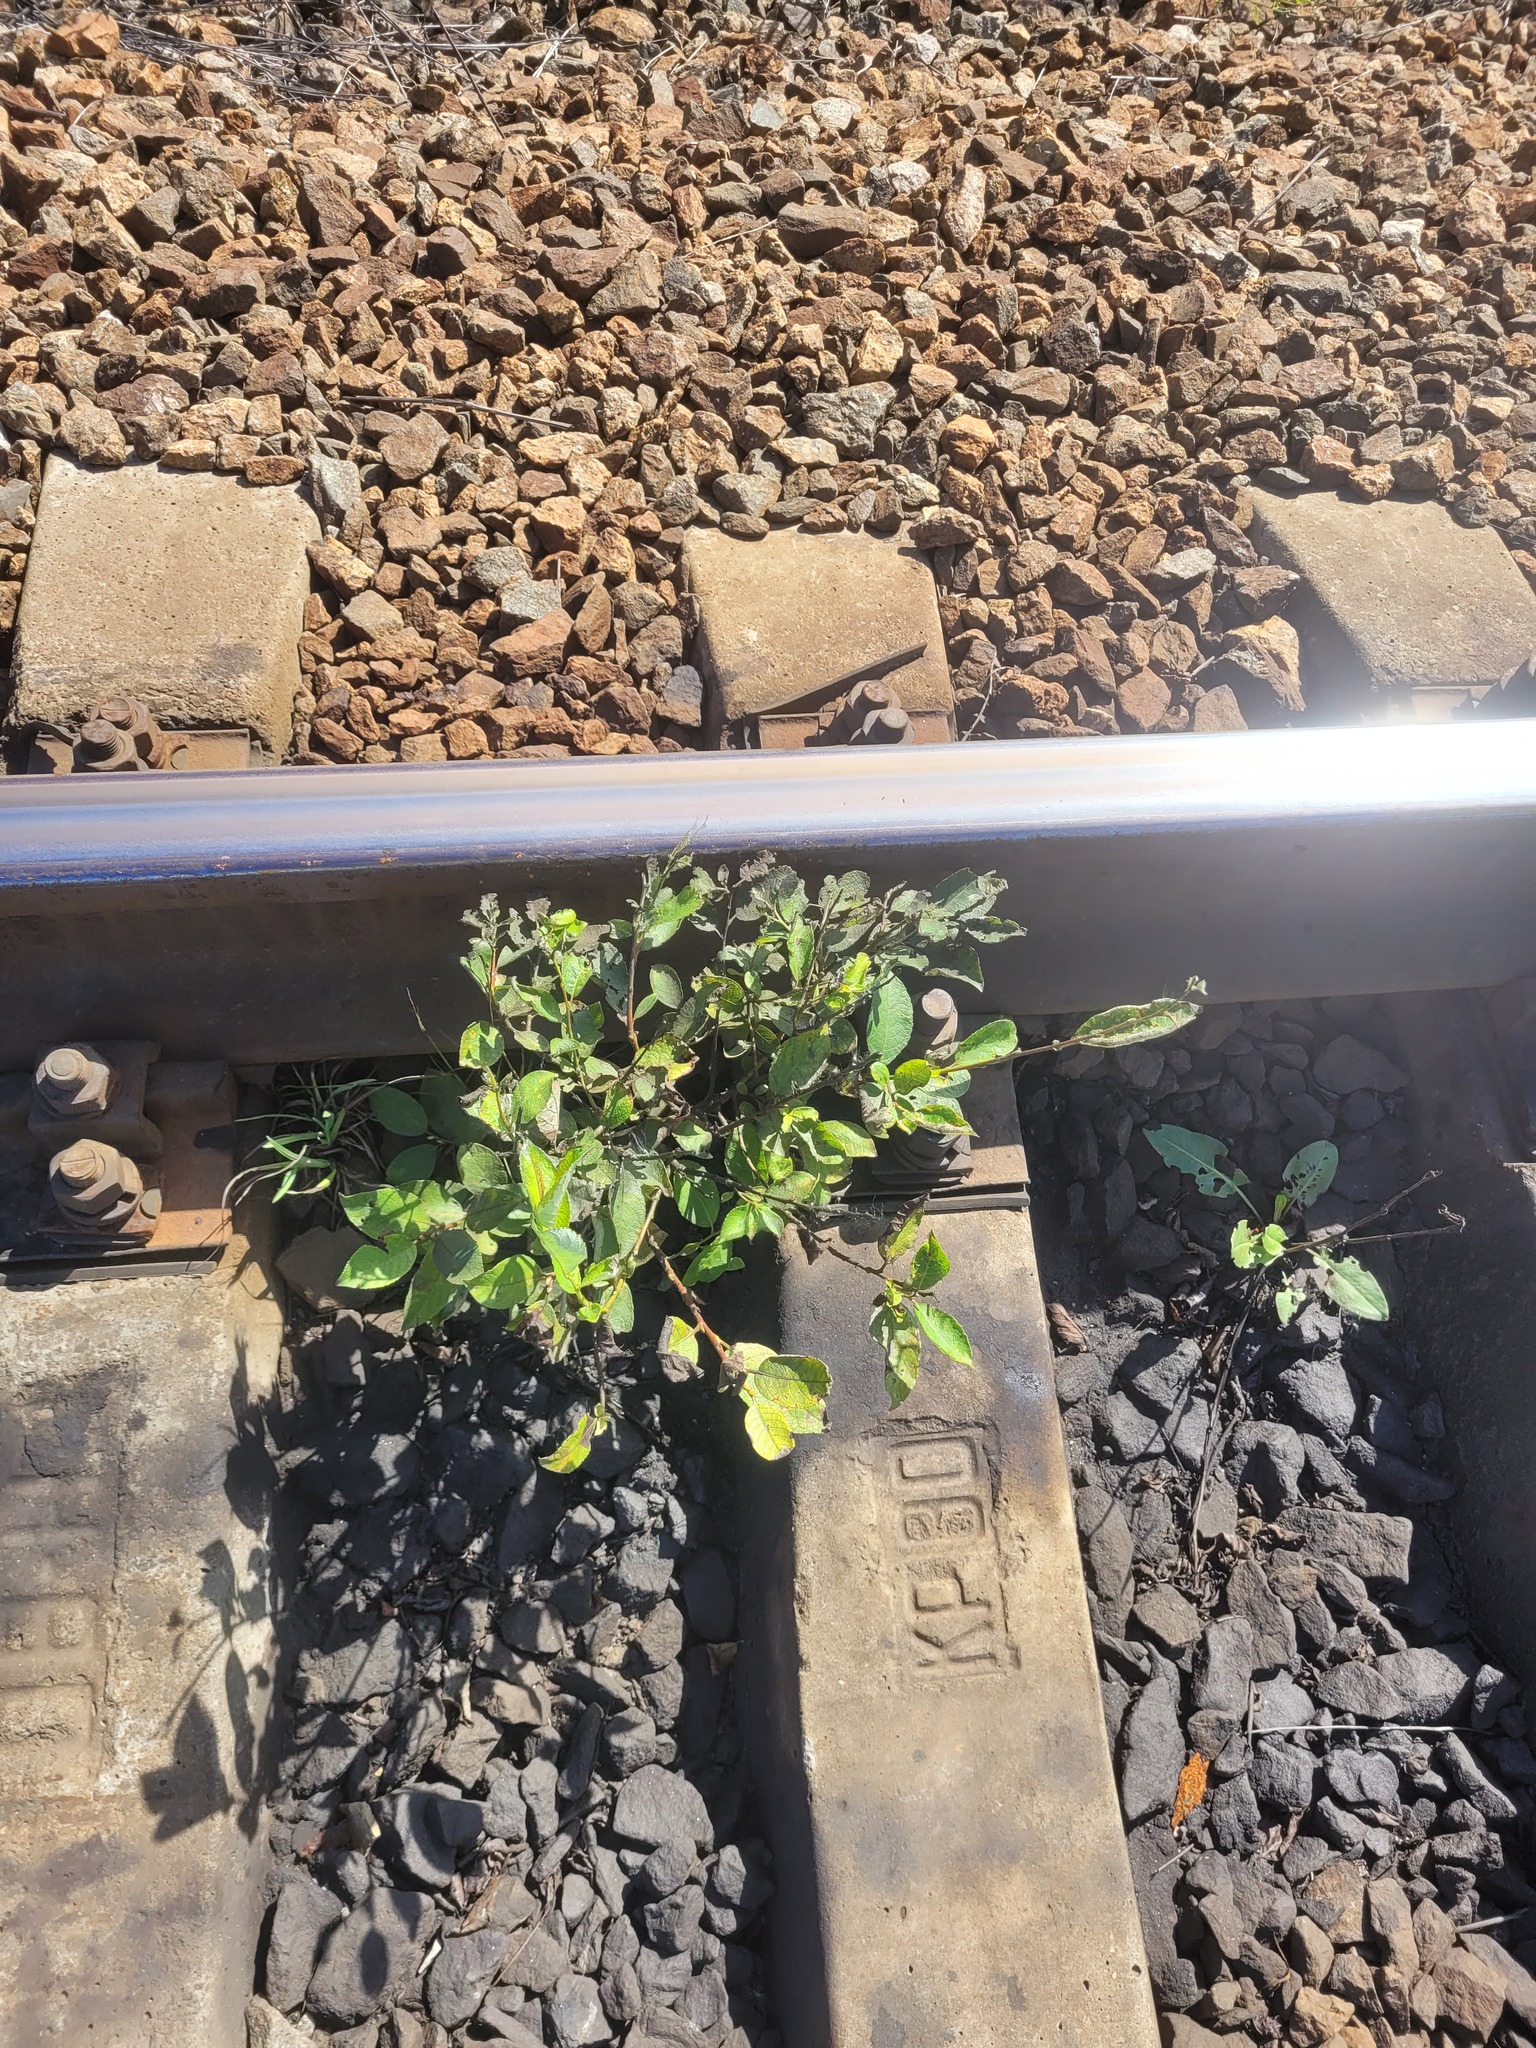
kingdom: Plantae
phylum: Tracheophyta
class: Magnoliopsida
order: Malpighiales
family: Salicaceae
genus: Salix
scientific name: Salix caprea
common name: Goat willow
